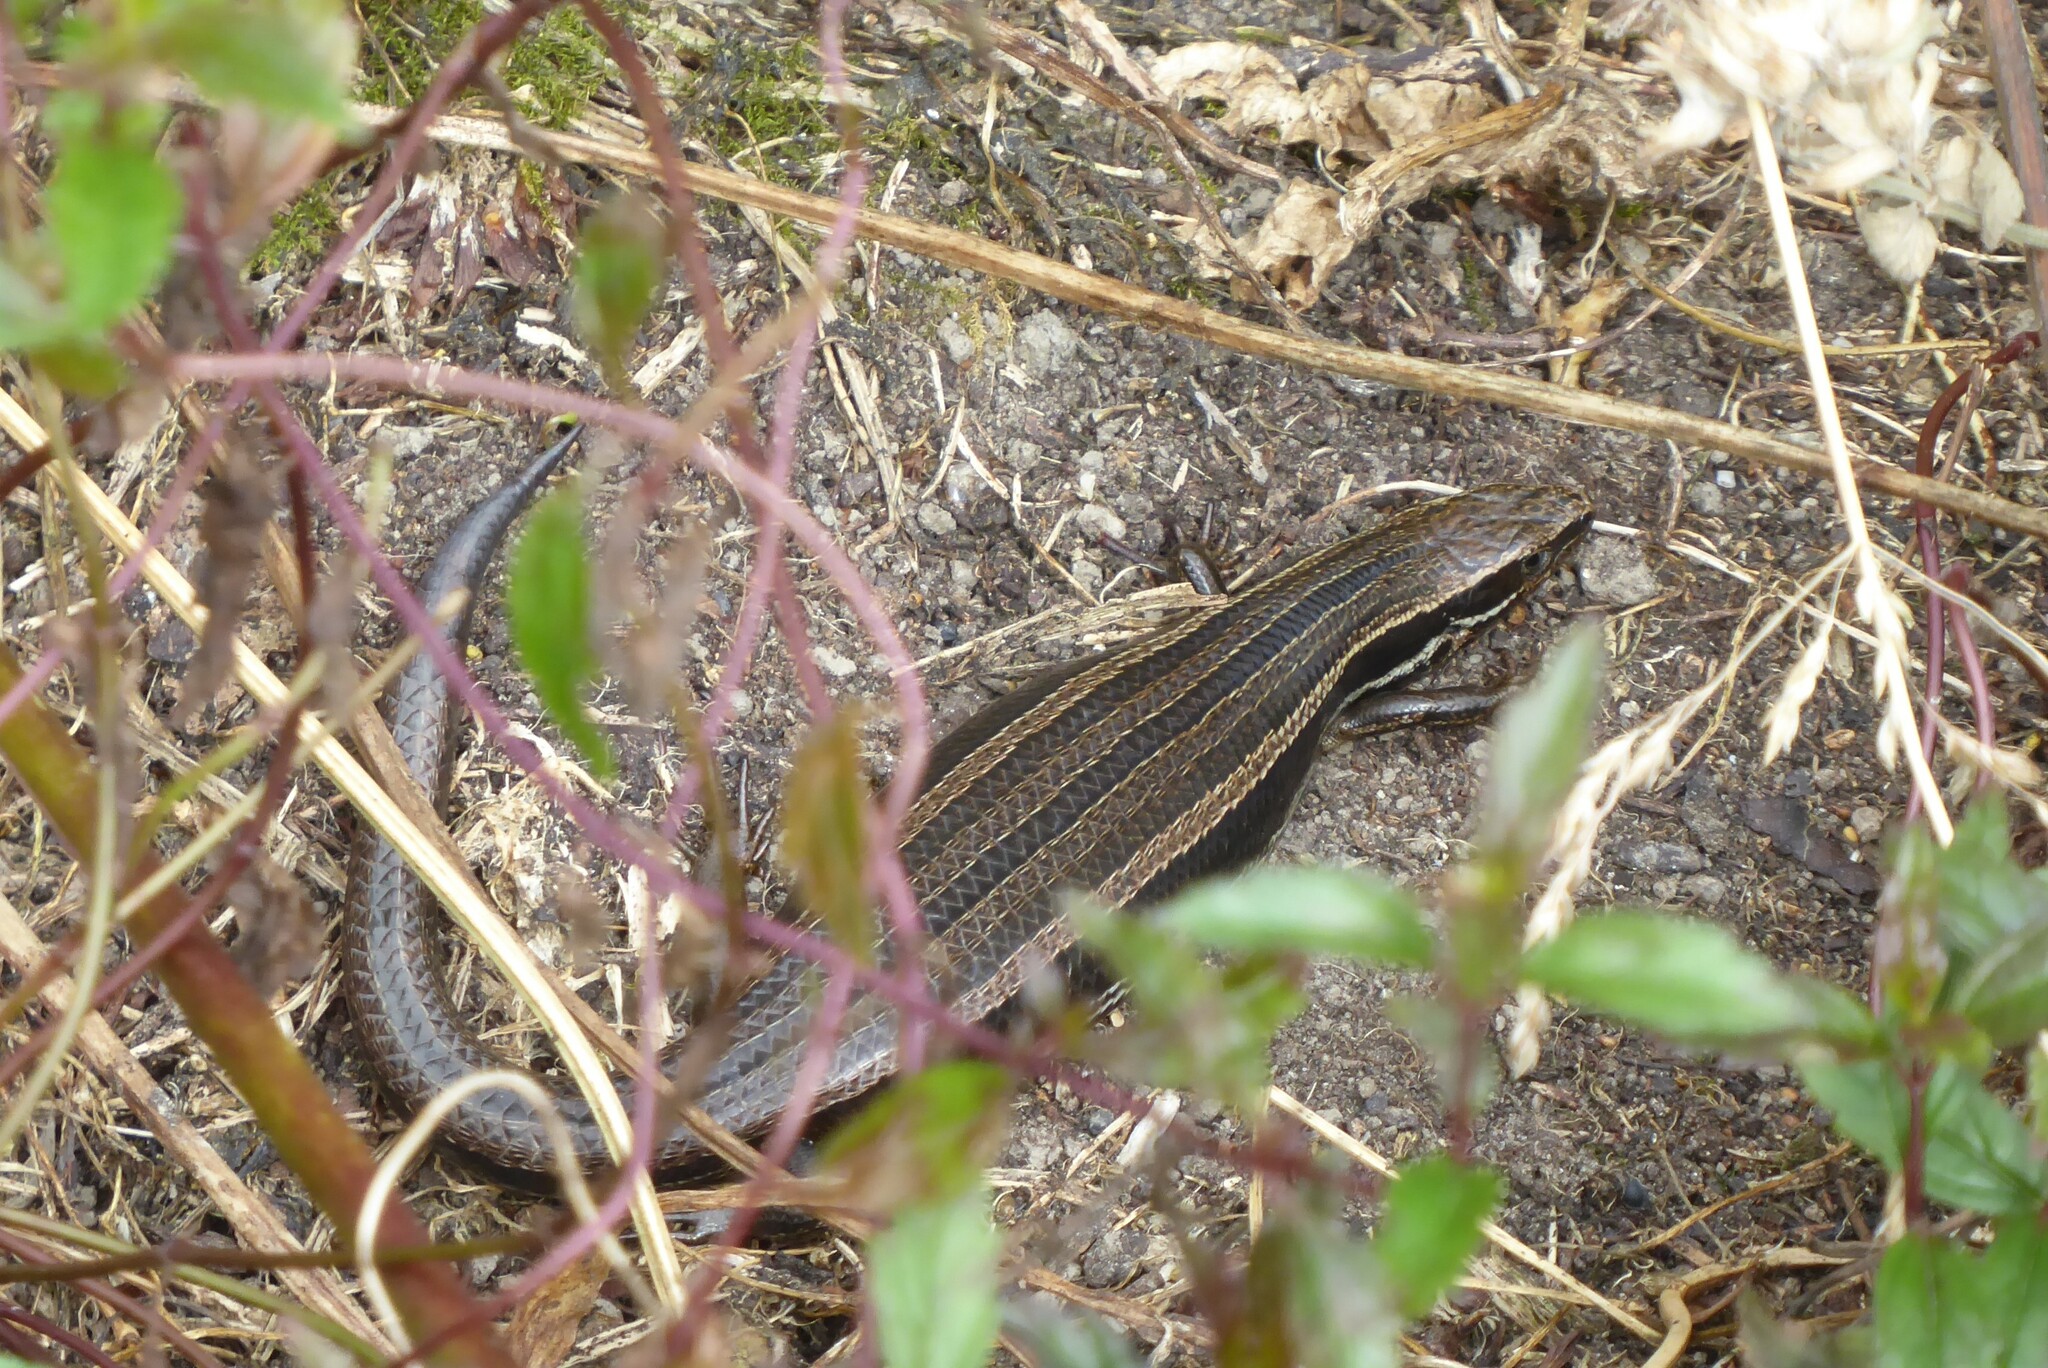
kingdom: Animalia
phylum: Chordata
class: Squamata
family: Scincidae
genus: Oligosoma
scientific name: Oligosoma polychroma
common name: Common new zealand skink
